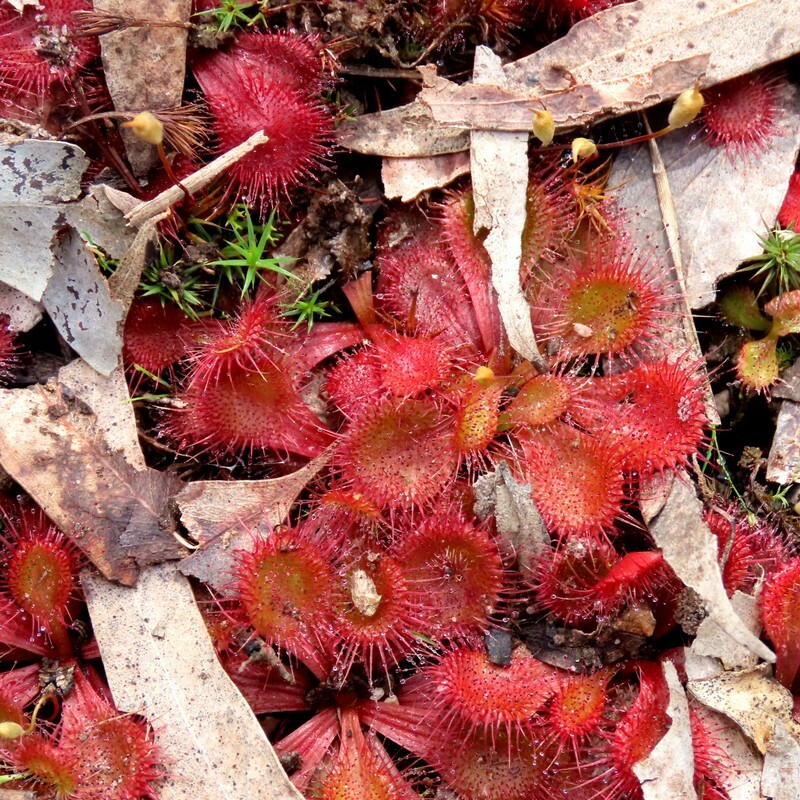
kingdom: Plantae
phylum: Tracheophyta
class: Magnoliopsida
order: Caryophyllales
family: Droseraceae
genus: Drosera
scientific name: Drosera aberrans
